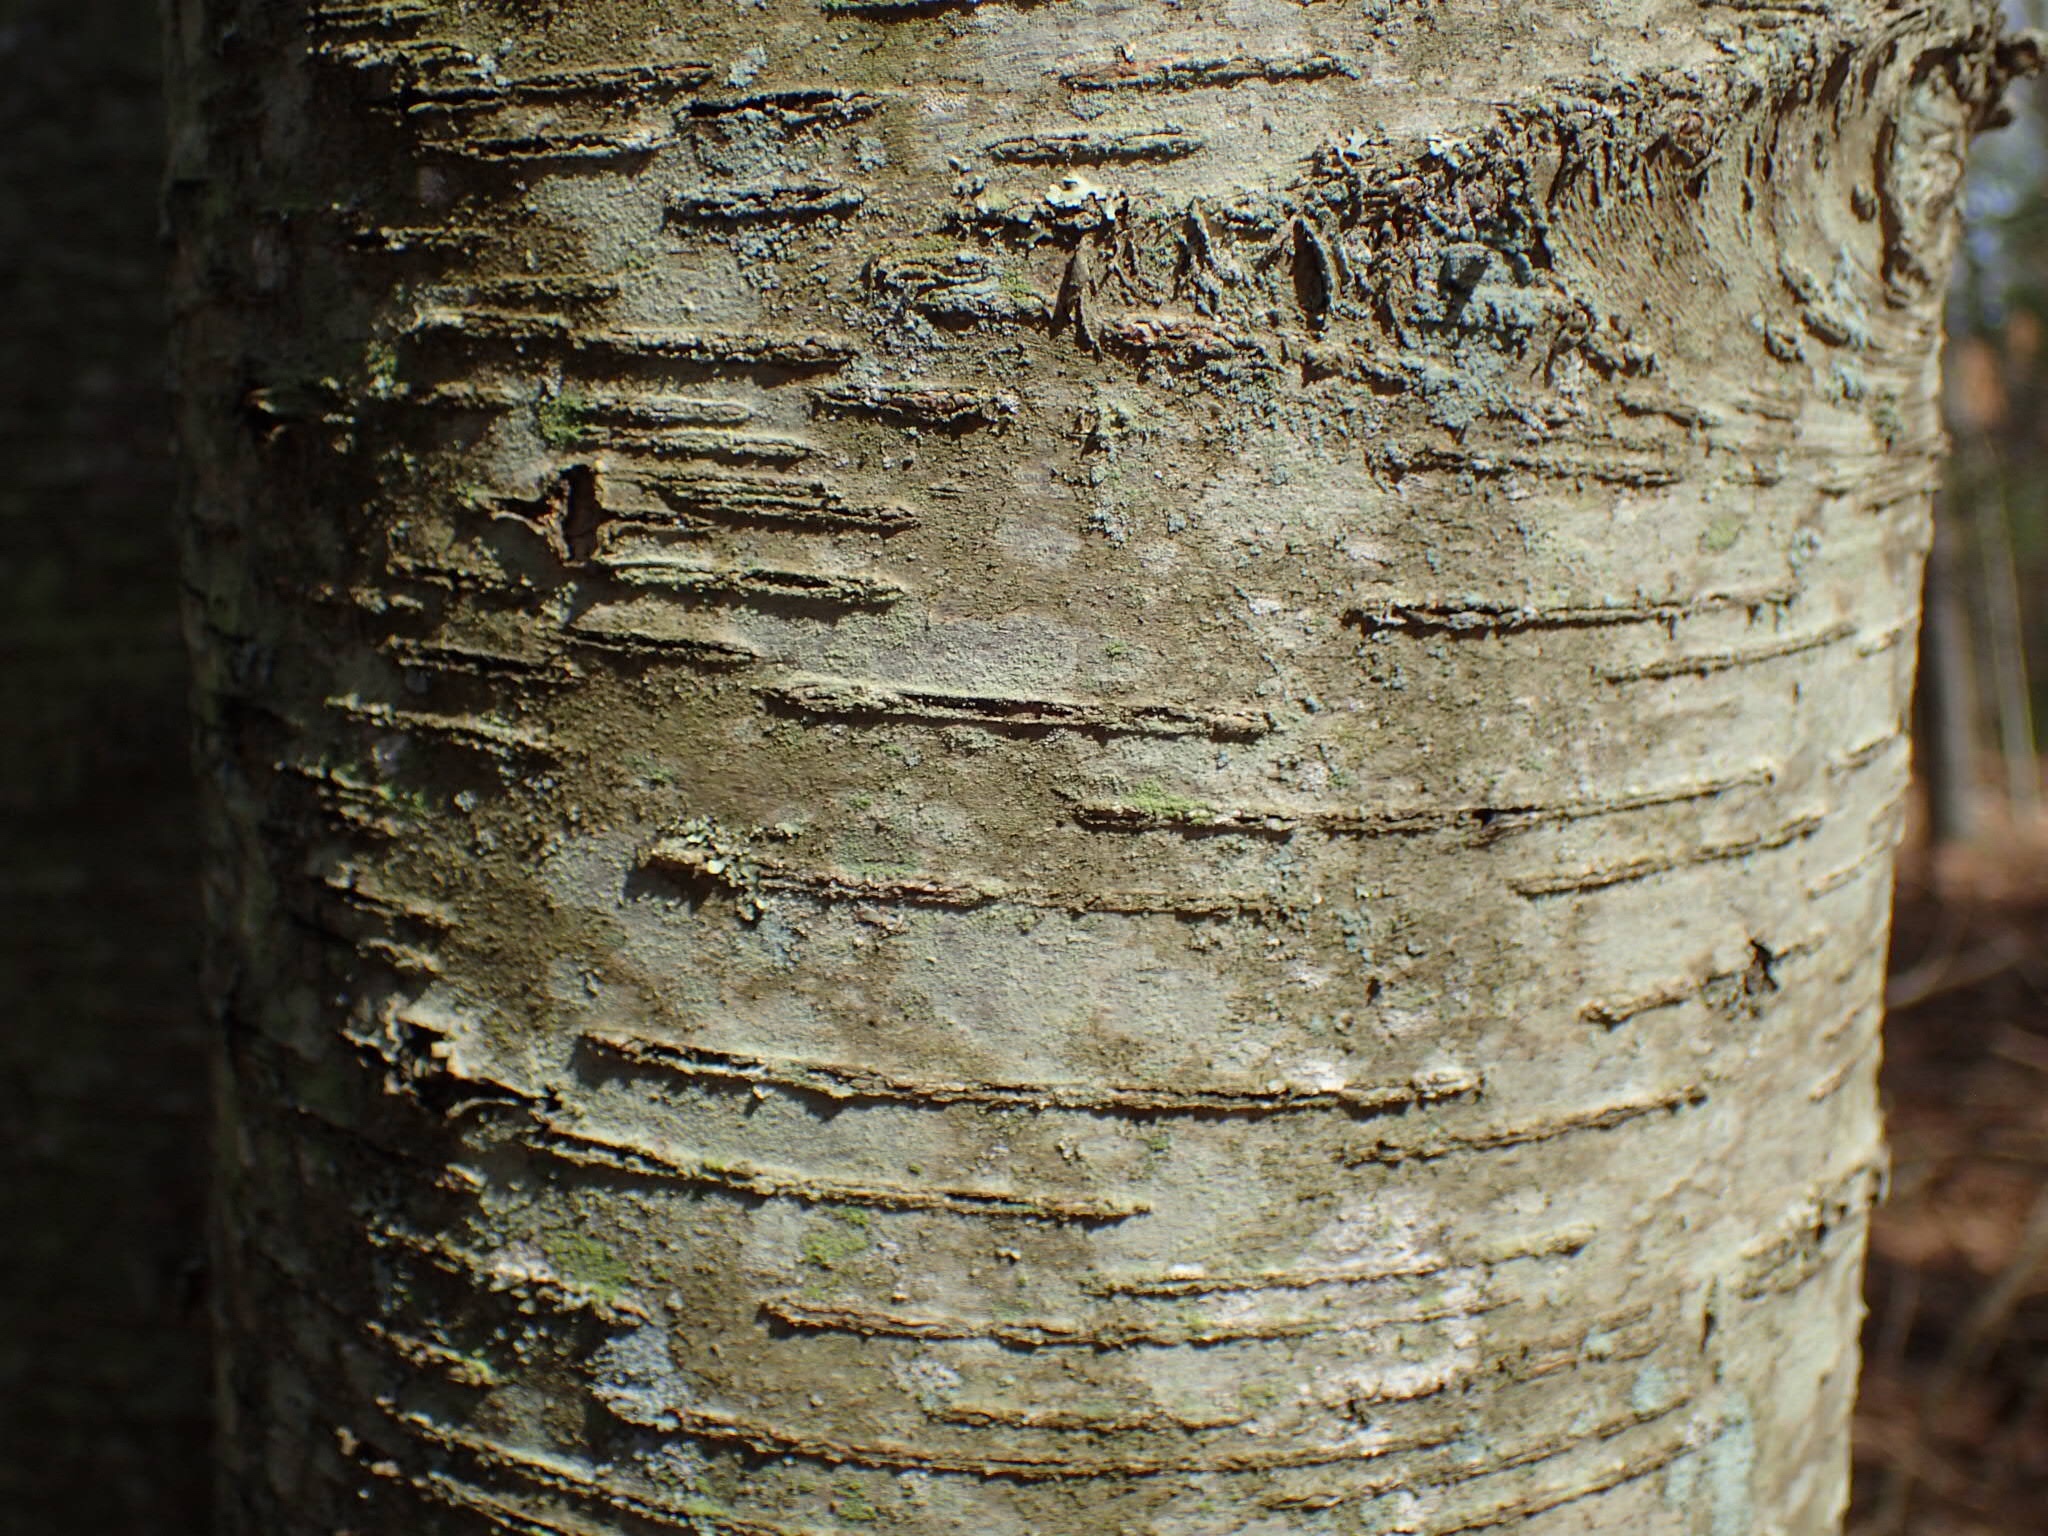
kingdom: Plantae
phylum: Tracheophyta
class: Magnoliopsida
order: Fagales
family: Betulaceae
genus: Betula
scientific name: Betula lenta
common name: Black birch
